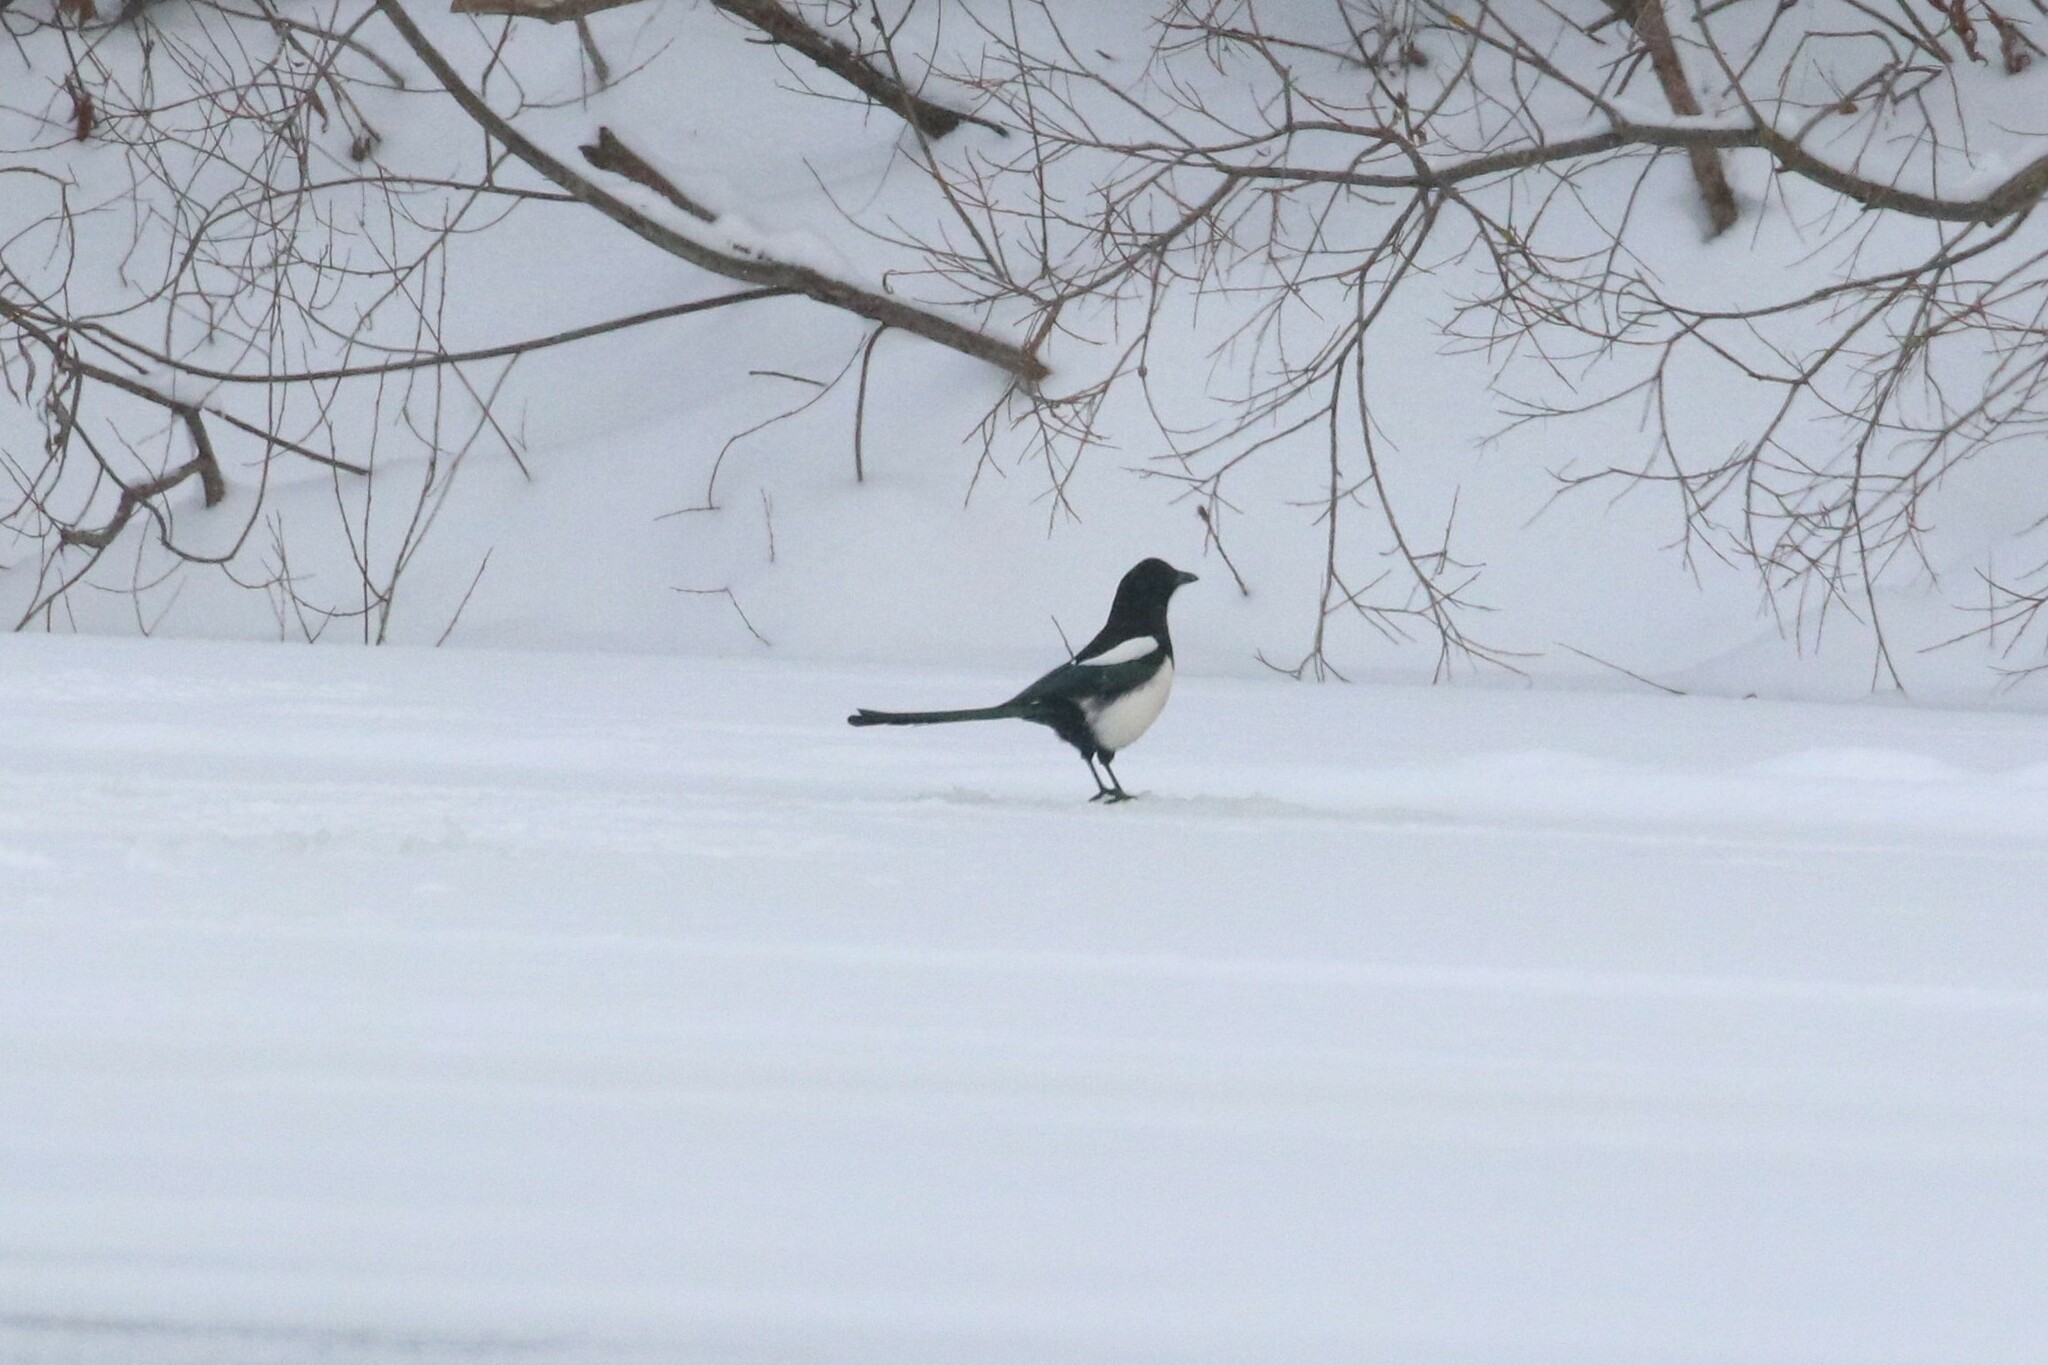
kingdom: Animalia
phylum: Chordata
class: Aves
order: Passeriformes
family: Corvidae
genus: Pica
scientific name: Pica pica
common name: Eurasian magpie
